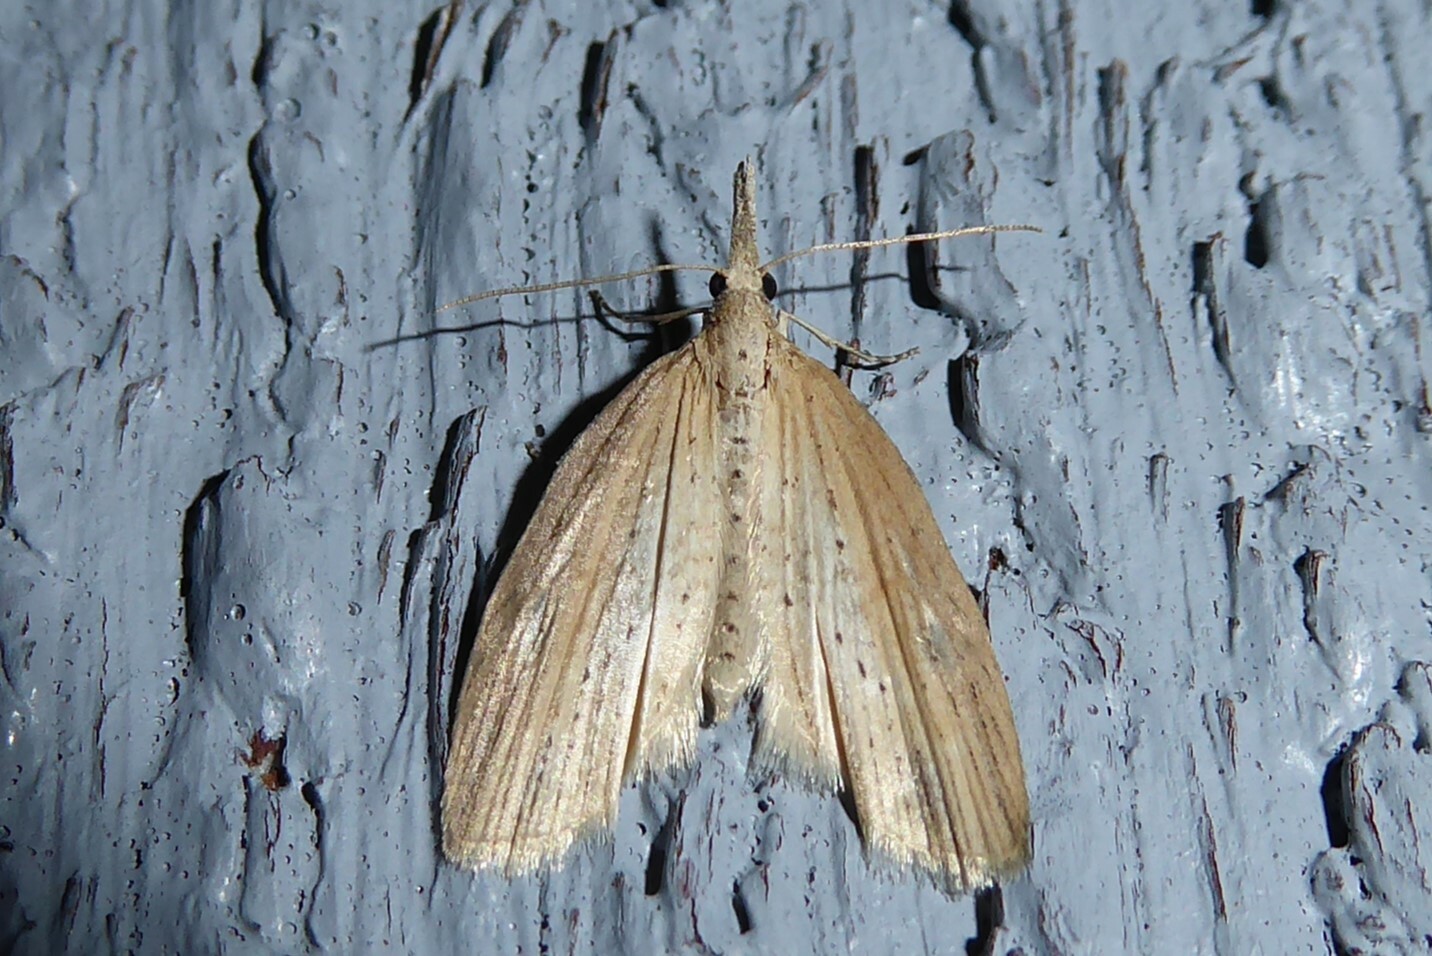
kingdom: Animalia
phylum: Arthropoda
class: Insecta
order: Lepidoptera
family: Geometridae
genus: Microdes
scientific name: Microdes epicryptis
